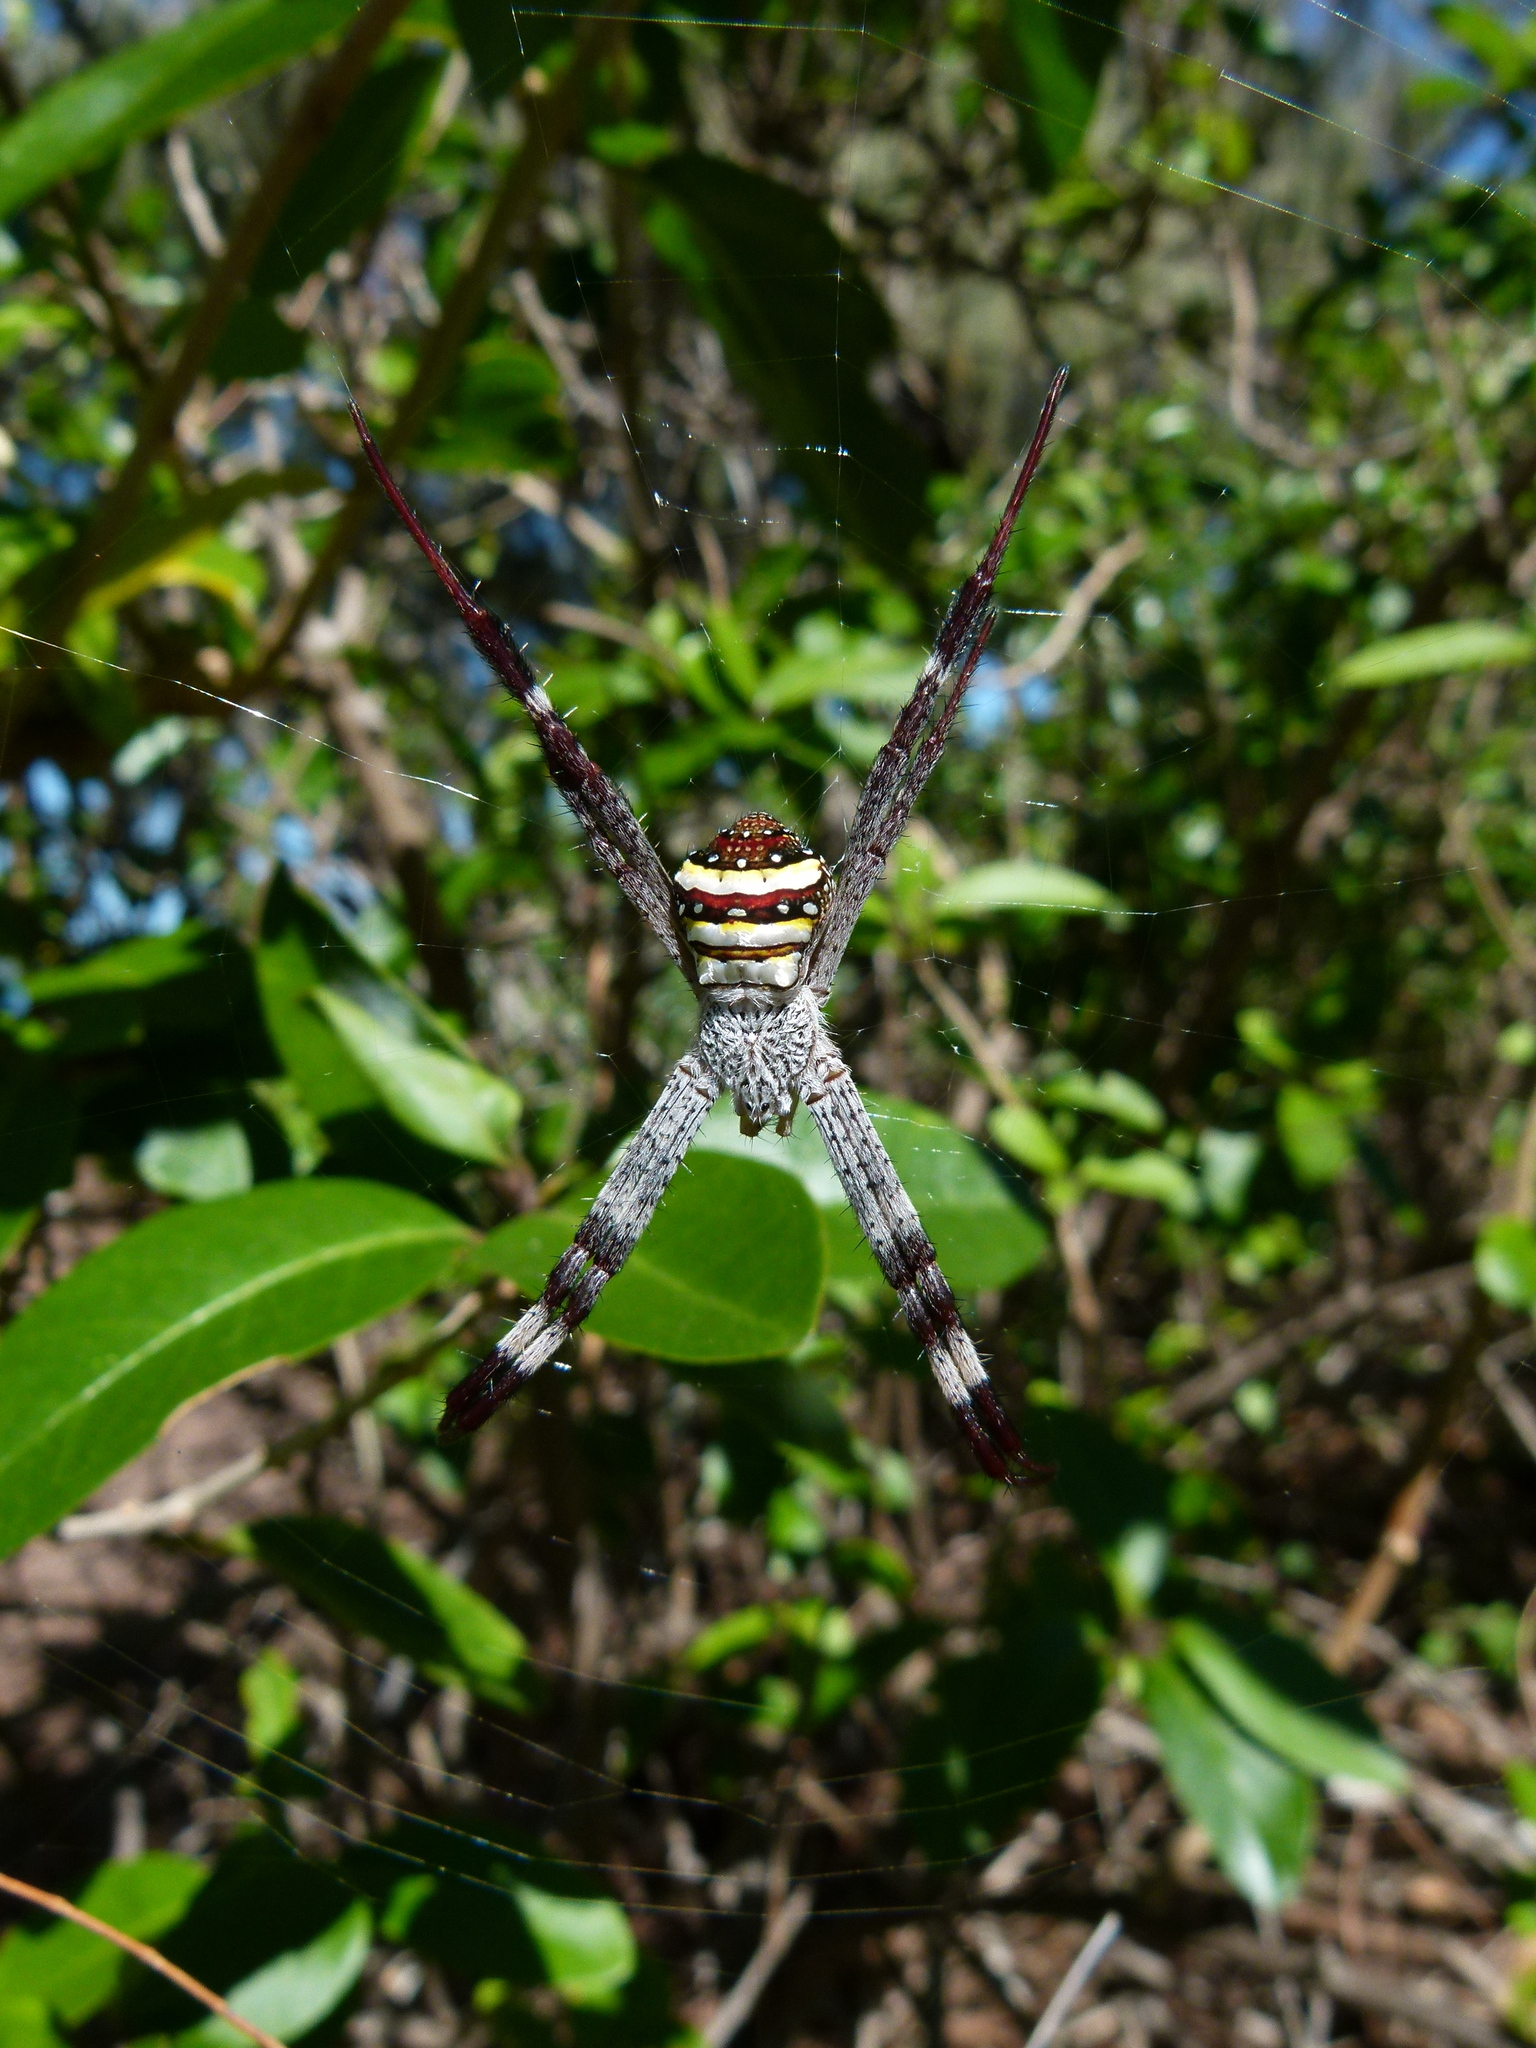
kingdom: Animalia
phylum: Arthropoda
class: Arachnida
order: Araneae
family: Araneidae
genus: Argiope
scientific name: Argiope aetherea
